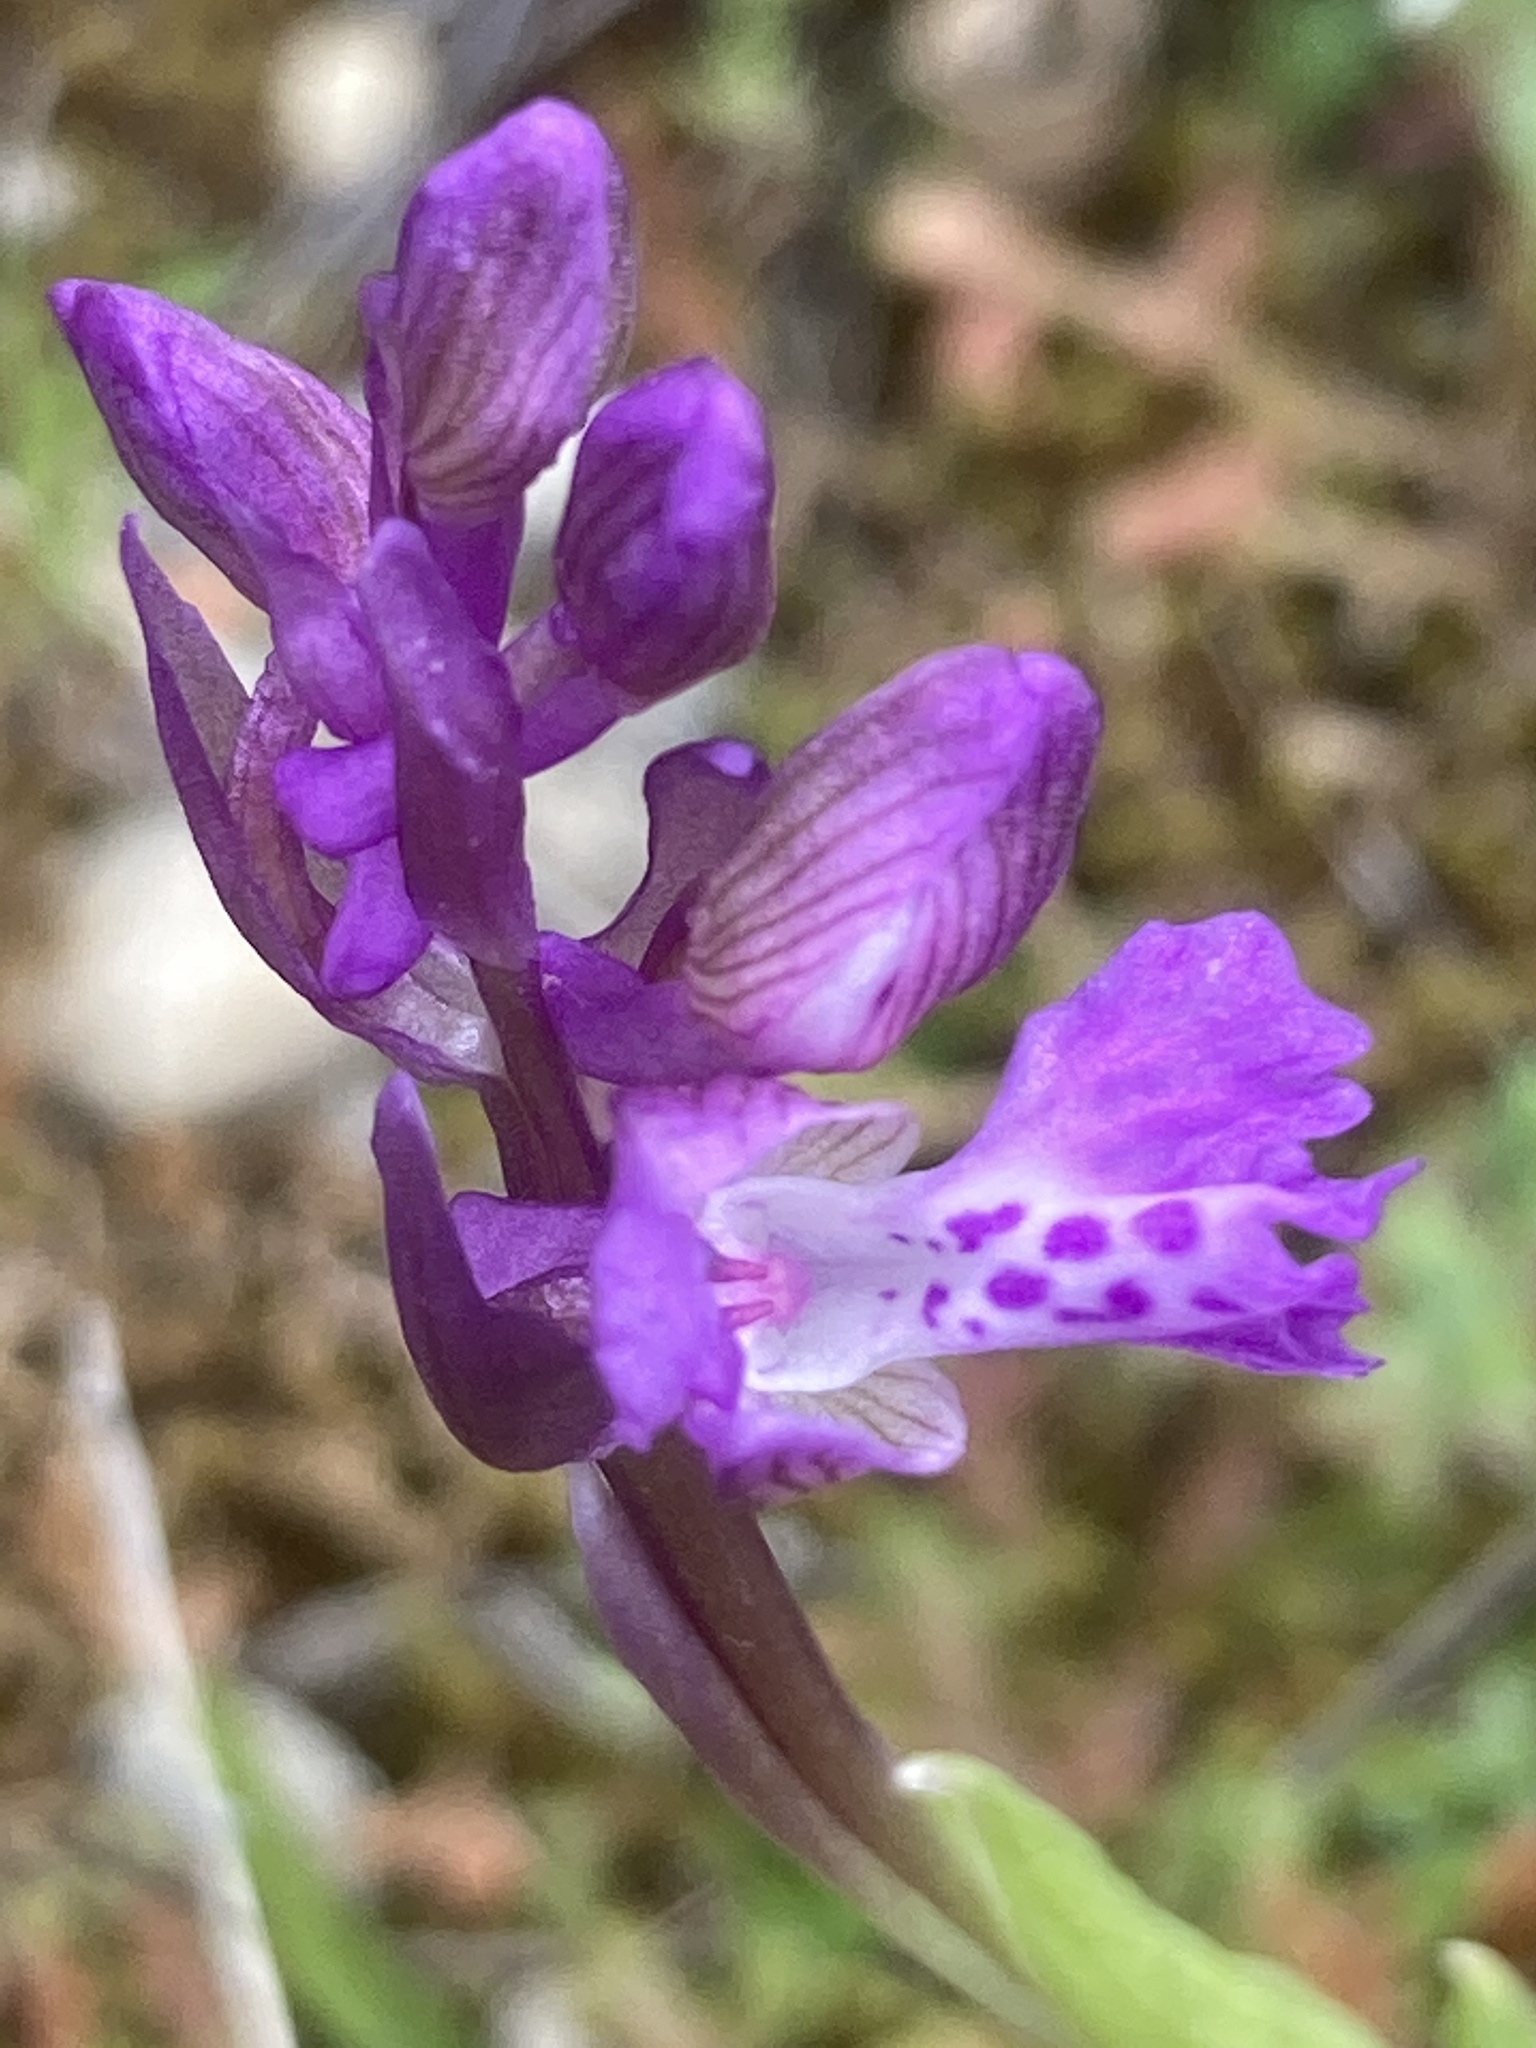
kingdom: Plantae
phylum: Tracheophyta
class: Liliopsida
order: Asparagales
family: Orchidaceae
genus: Anacamptis
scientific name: Anacamptis morio
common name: Green-winged orchid
